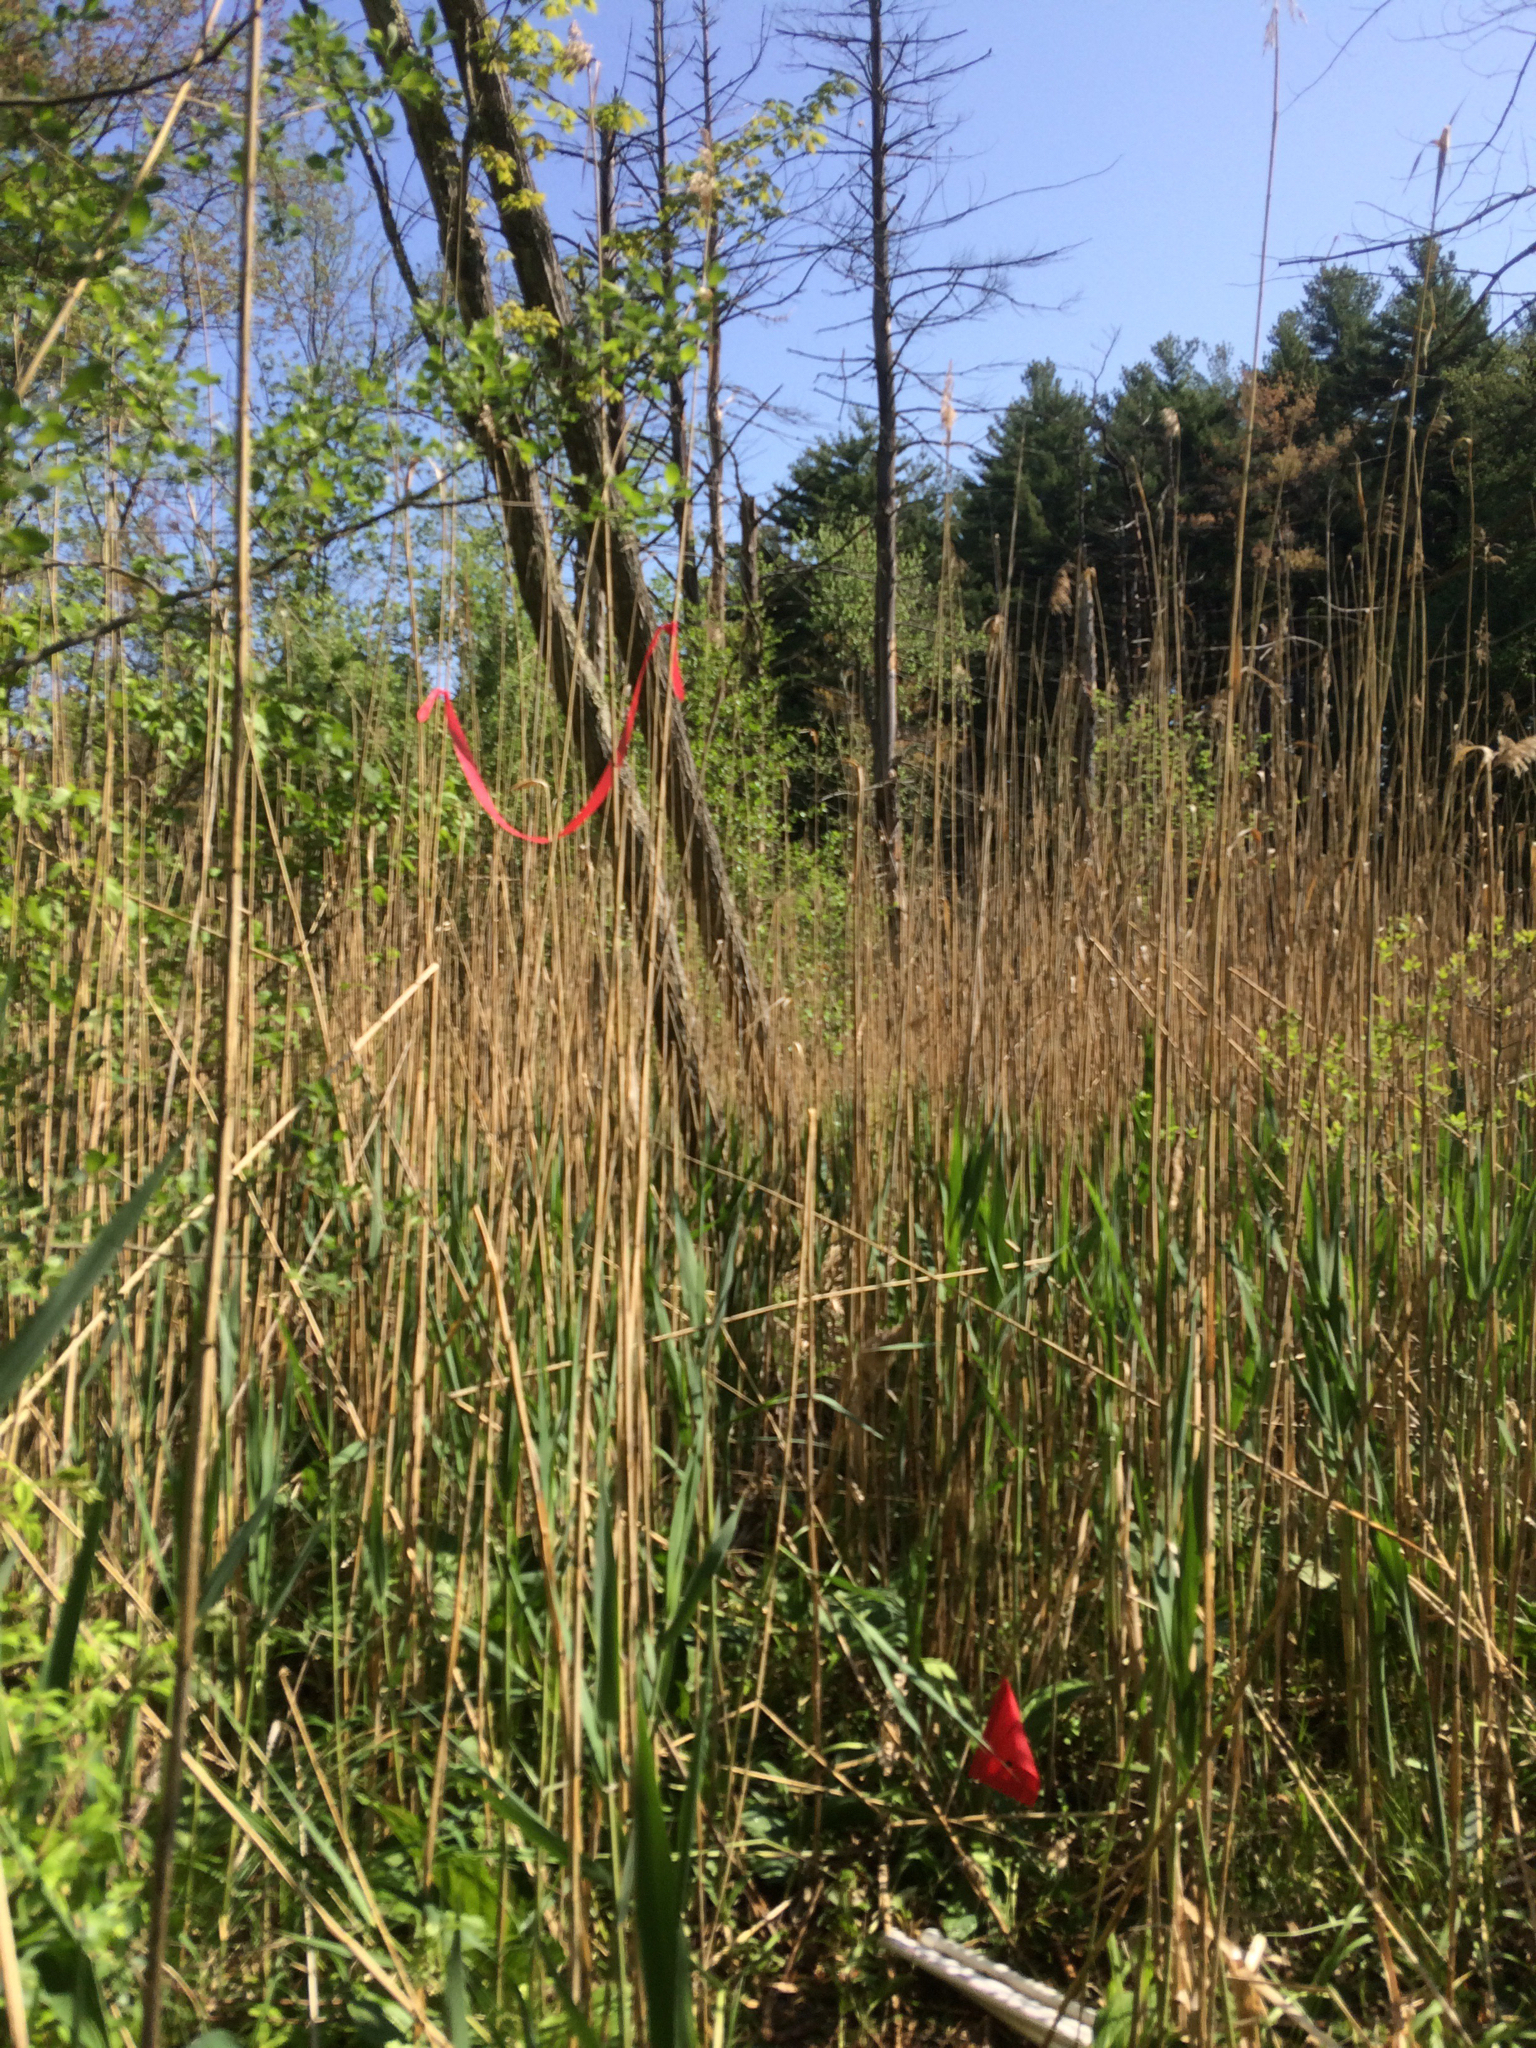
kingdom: Plantae
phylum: Tracheophyta
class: Liliopsida
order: Poales
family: Poaceae
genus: Phragmites
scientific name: Phragmites australis
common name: Common reed
